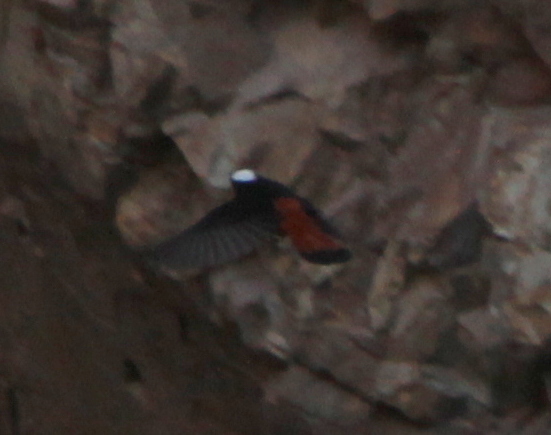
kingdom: Animalia
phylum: Chordata
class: Aves
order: Passeriformes
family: Muscicapidae
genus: Chaimarrornis
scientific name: Chaimarrornis leucocephalus
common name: White-capped redstart
